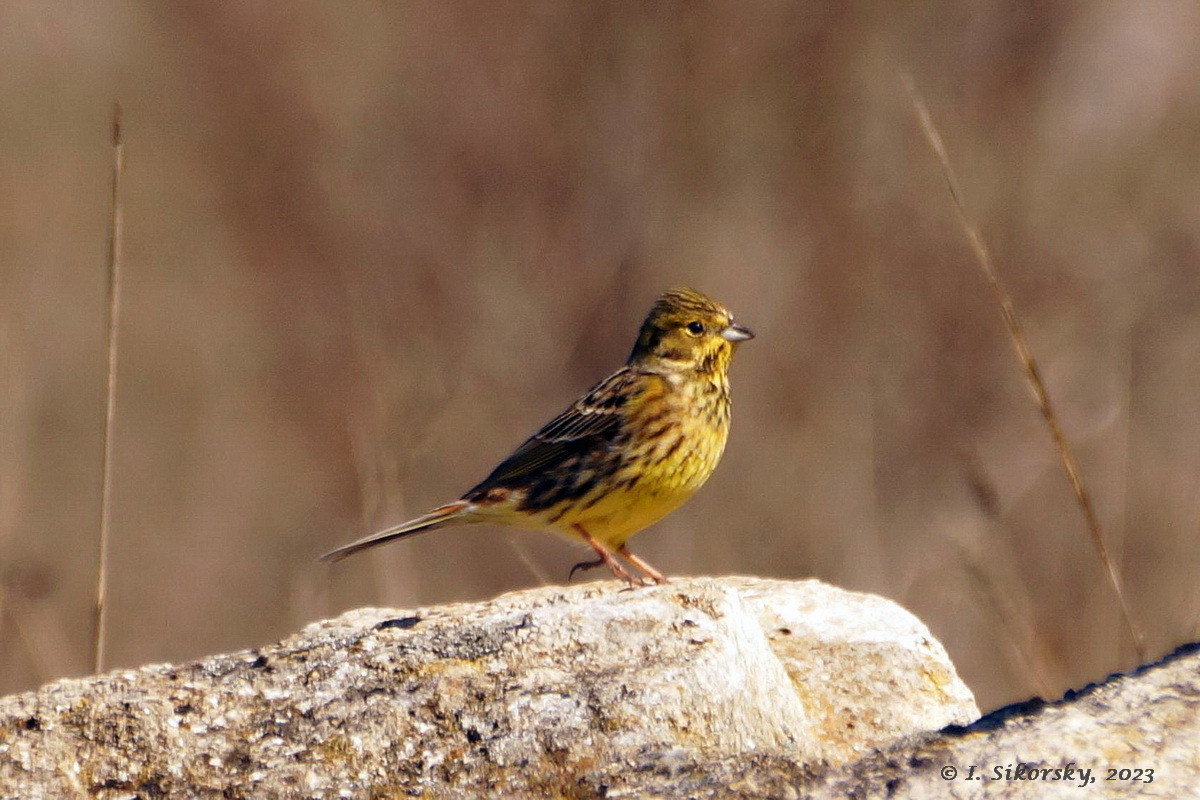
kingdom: Animalia
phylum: Chordata
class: Aves
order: Passeriformes
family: Emberizidae
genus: Emberiza
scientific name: Emberiza citrinella
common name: Yellowhammer
